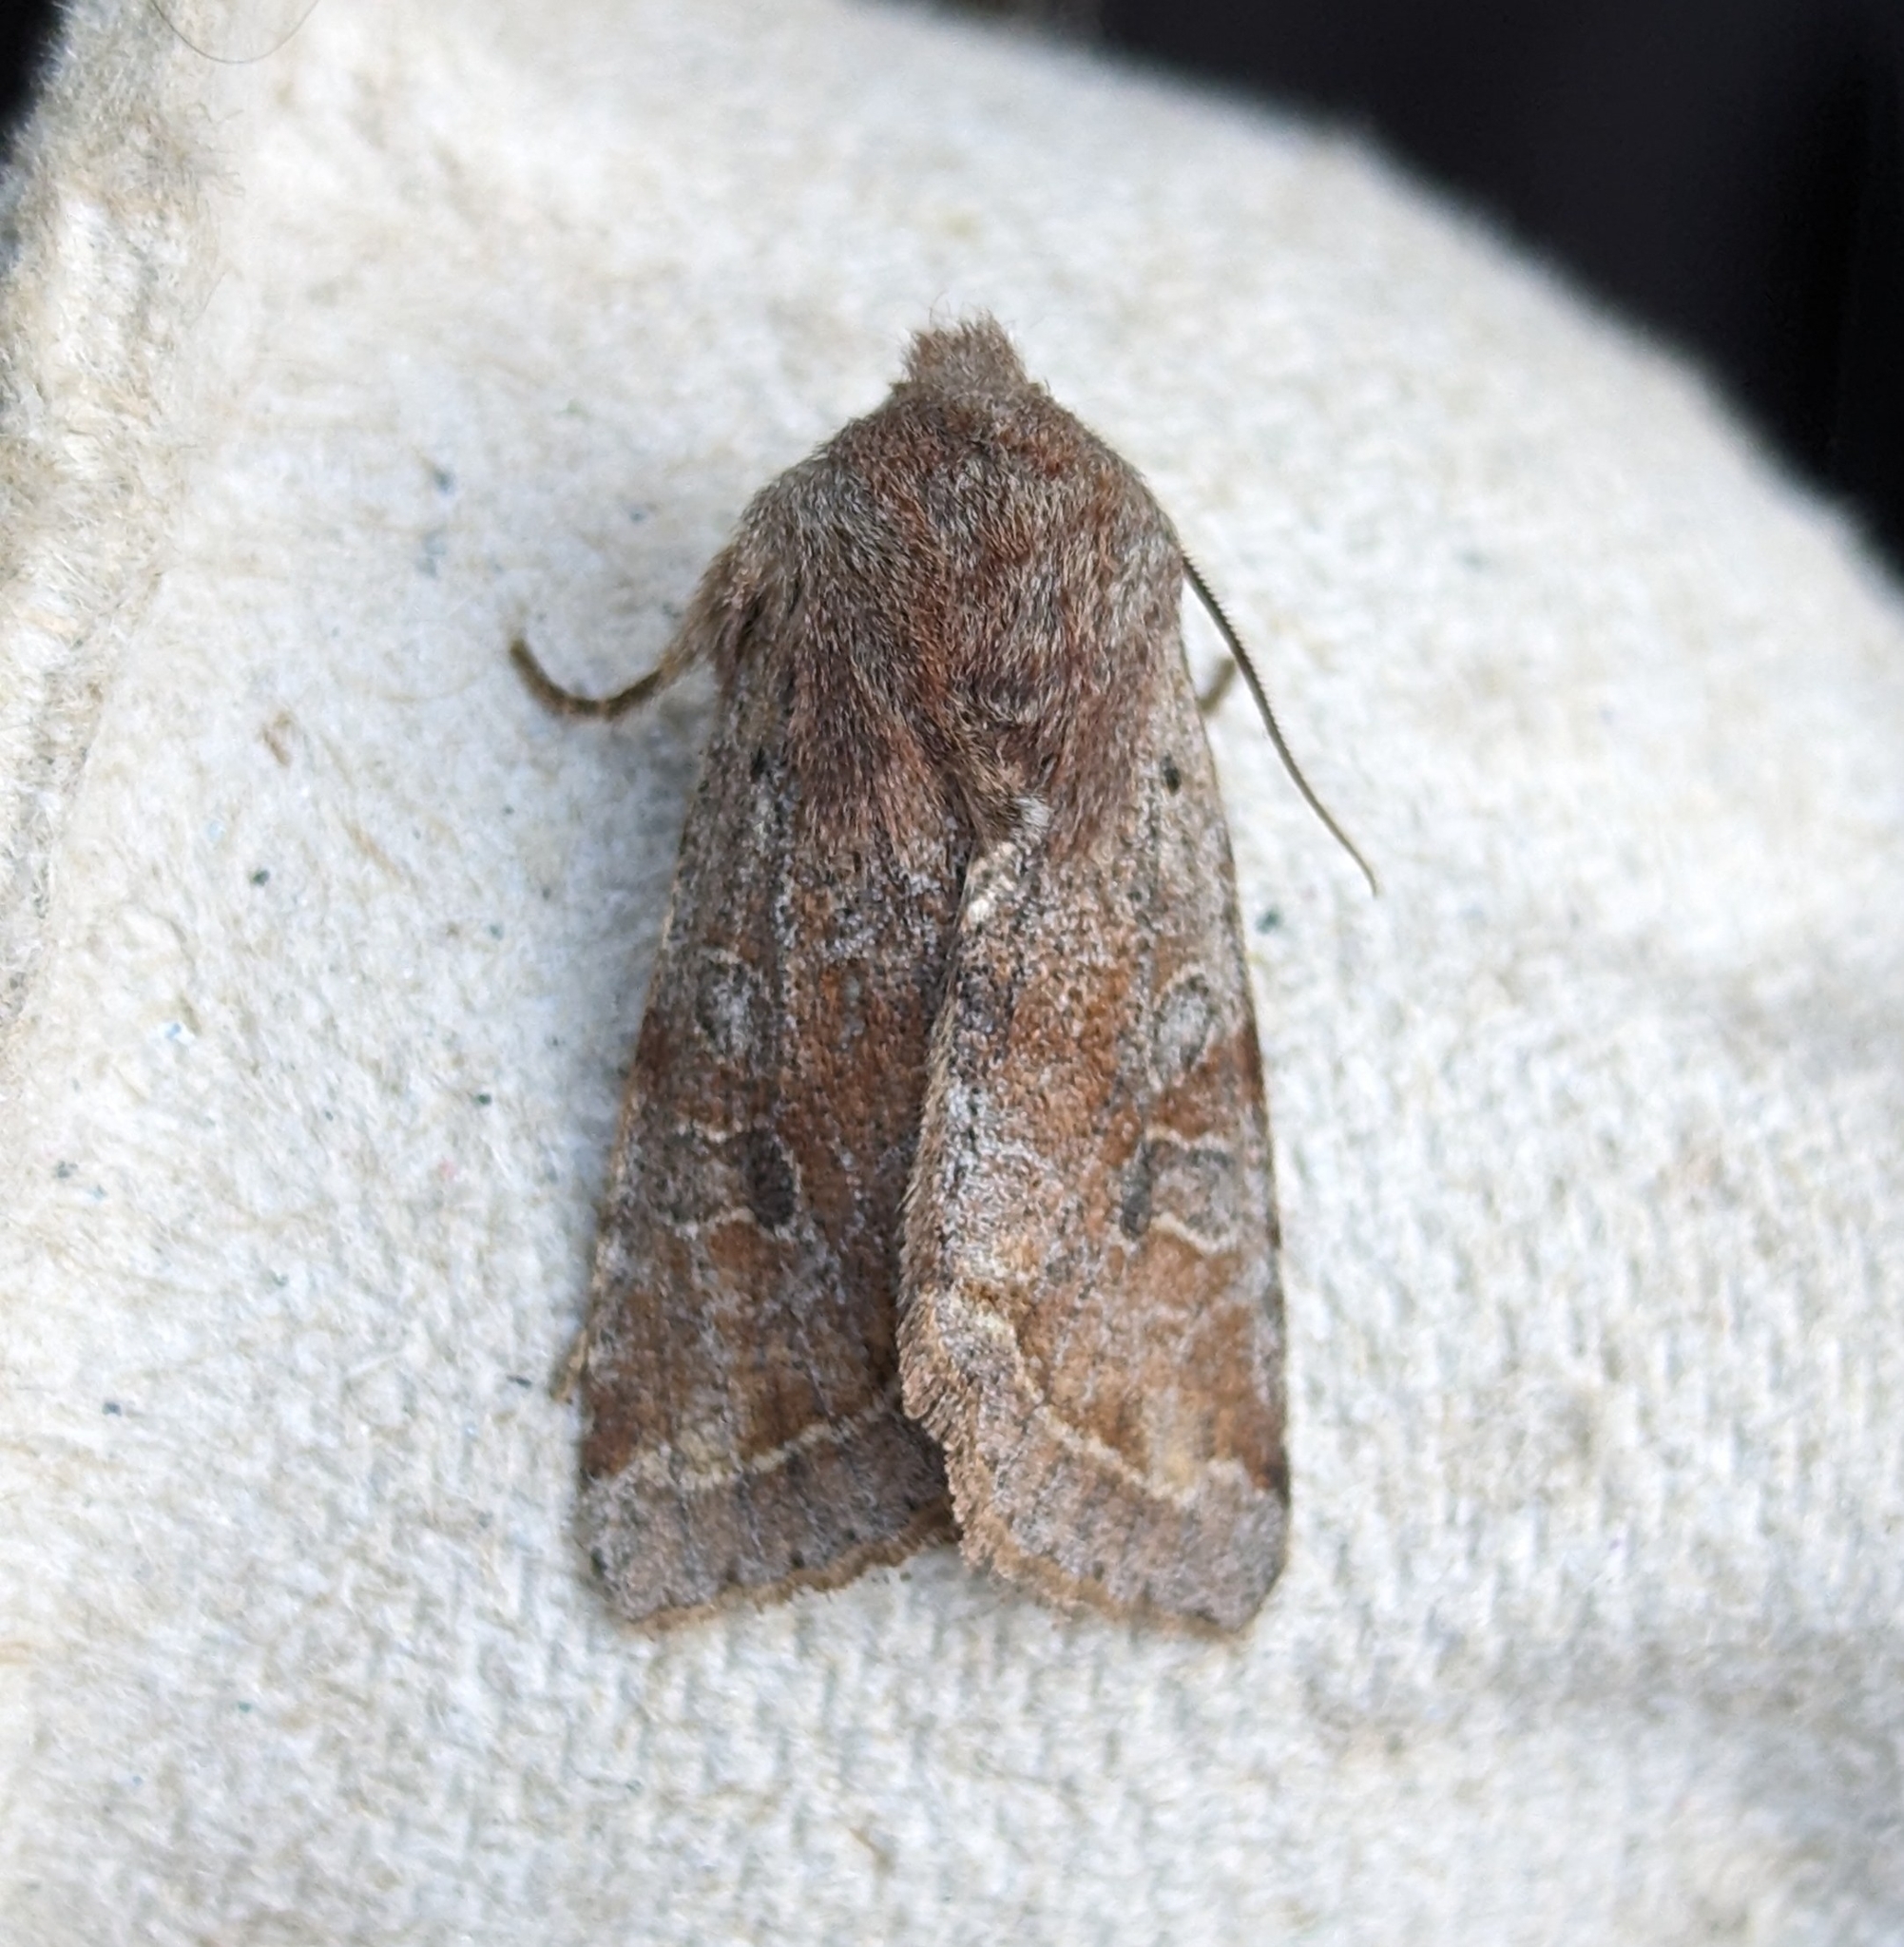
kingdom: Animalia
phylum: Arthropoda
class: Insecta
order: Lepidoptera
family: Noctuidae
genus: Orthosia
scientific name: Orthosia hibisci
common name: Green fruitworm
